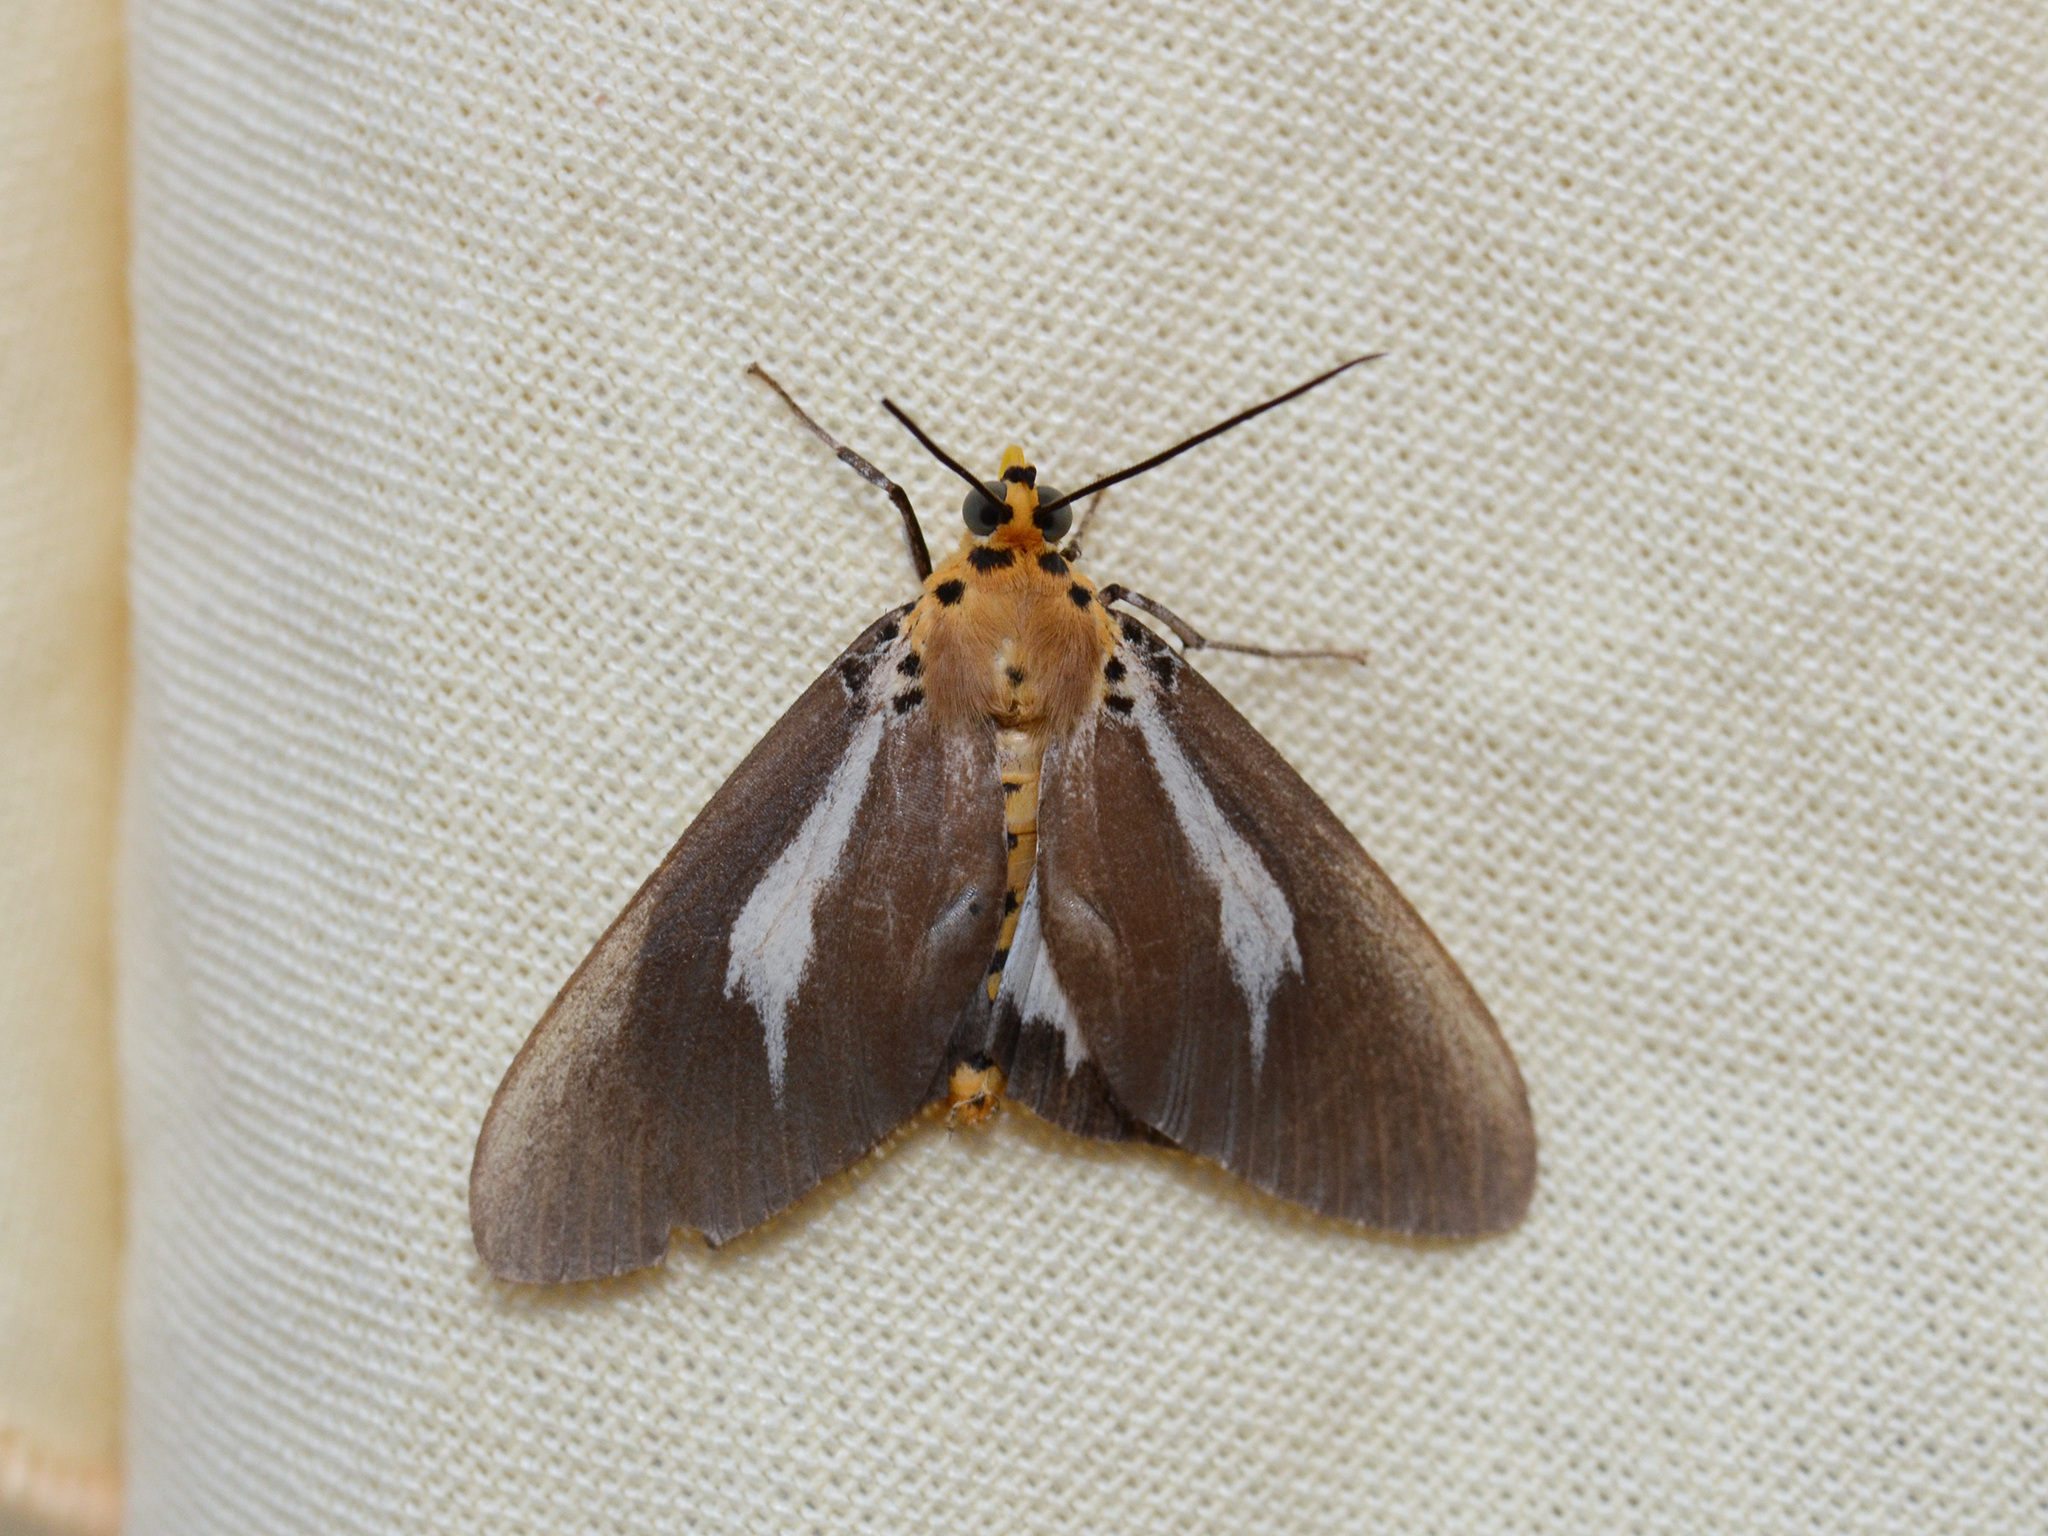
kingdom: Animalia
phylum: Arthropoda
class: Insecta
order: Lepidoptera
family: Erebidae
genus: Asota
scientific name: Asota heliconia
